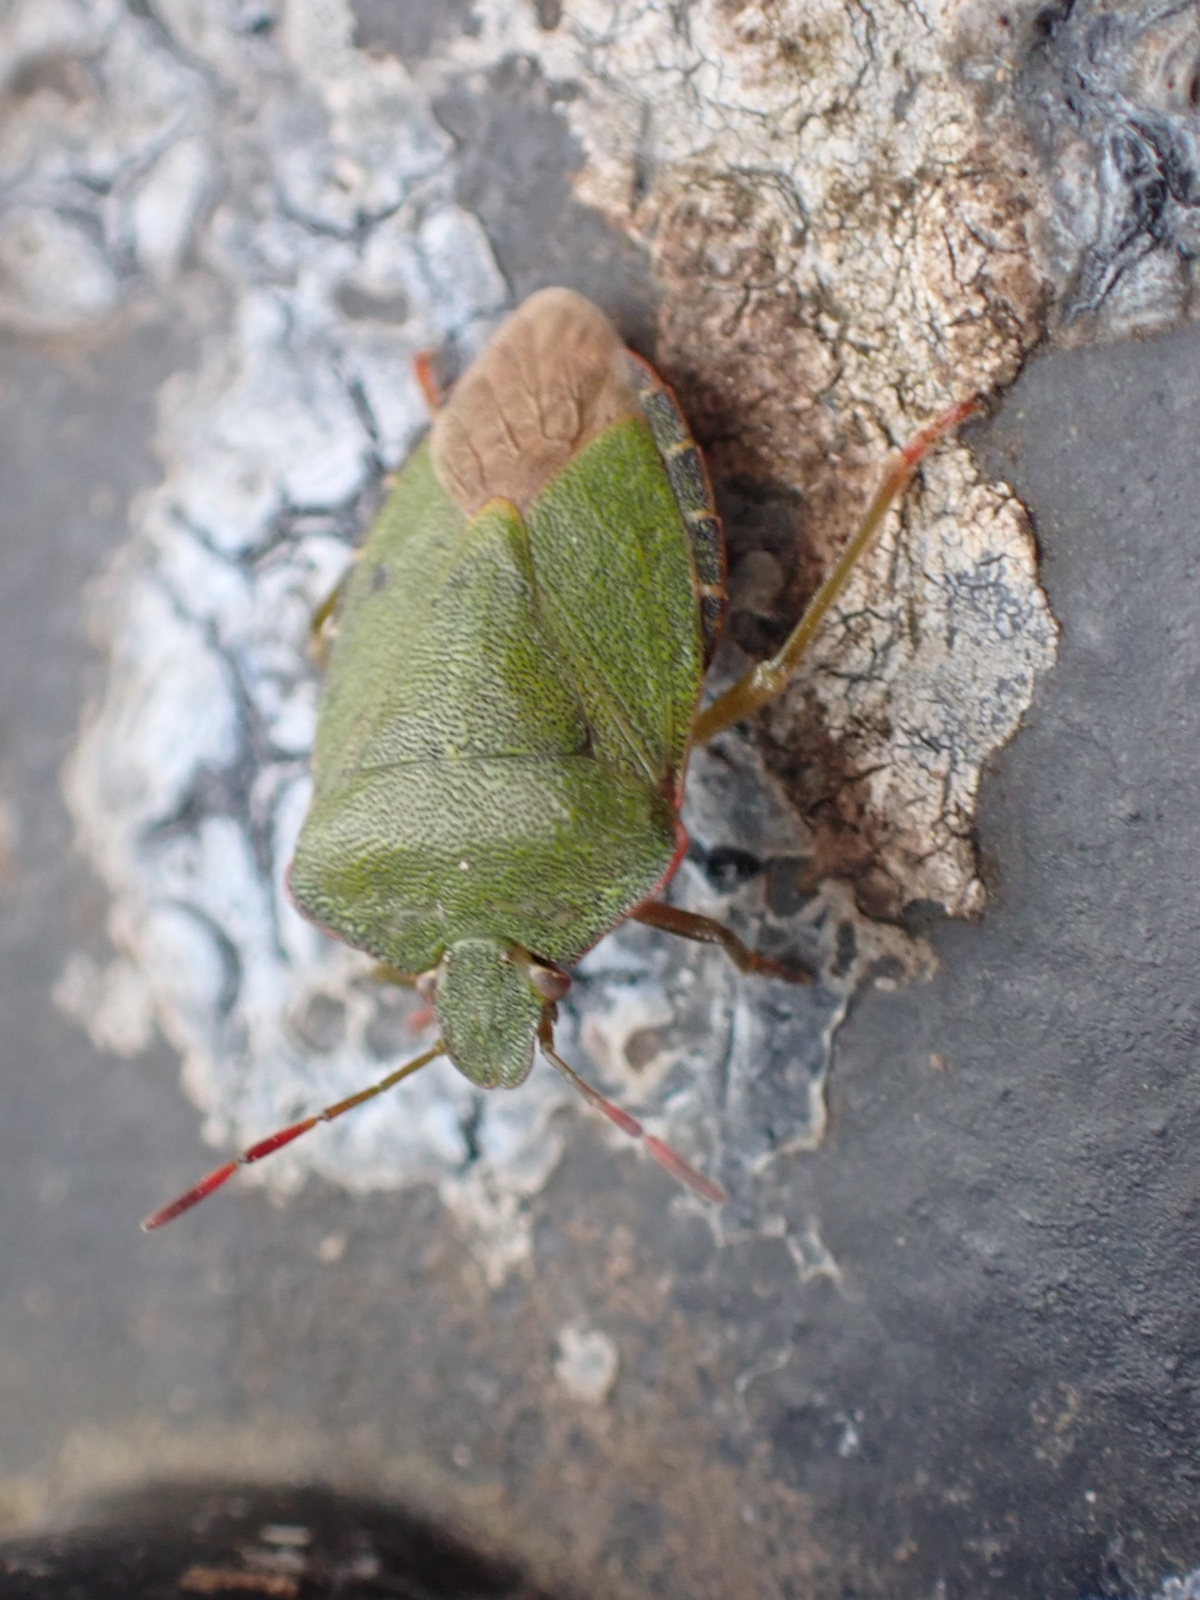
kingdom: Animalia
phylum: Arthropoda
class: Insecta
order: Hemiptera
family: Pentatomidae
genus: Palomena
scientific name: Palomena prasina
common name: Green shieldbug
